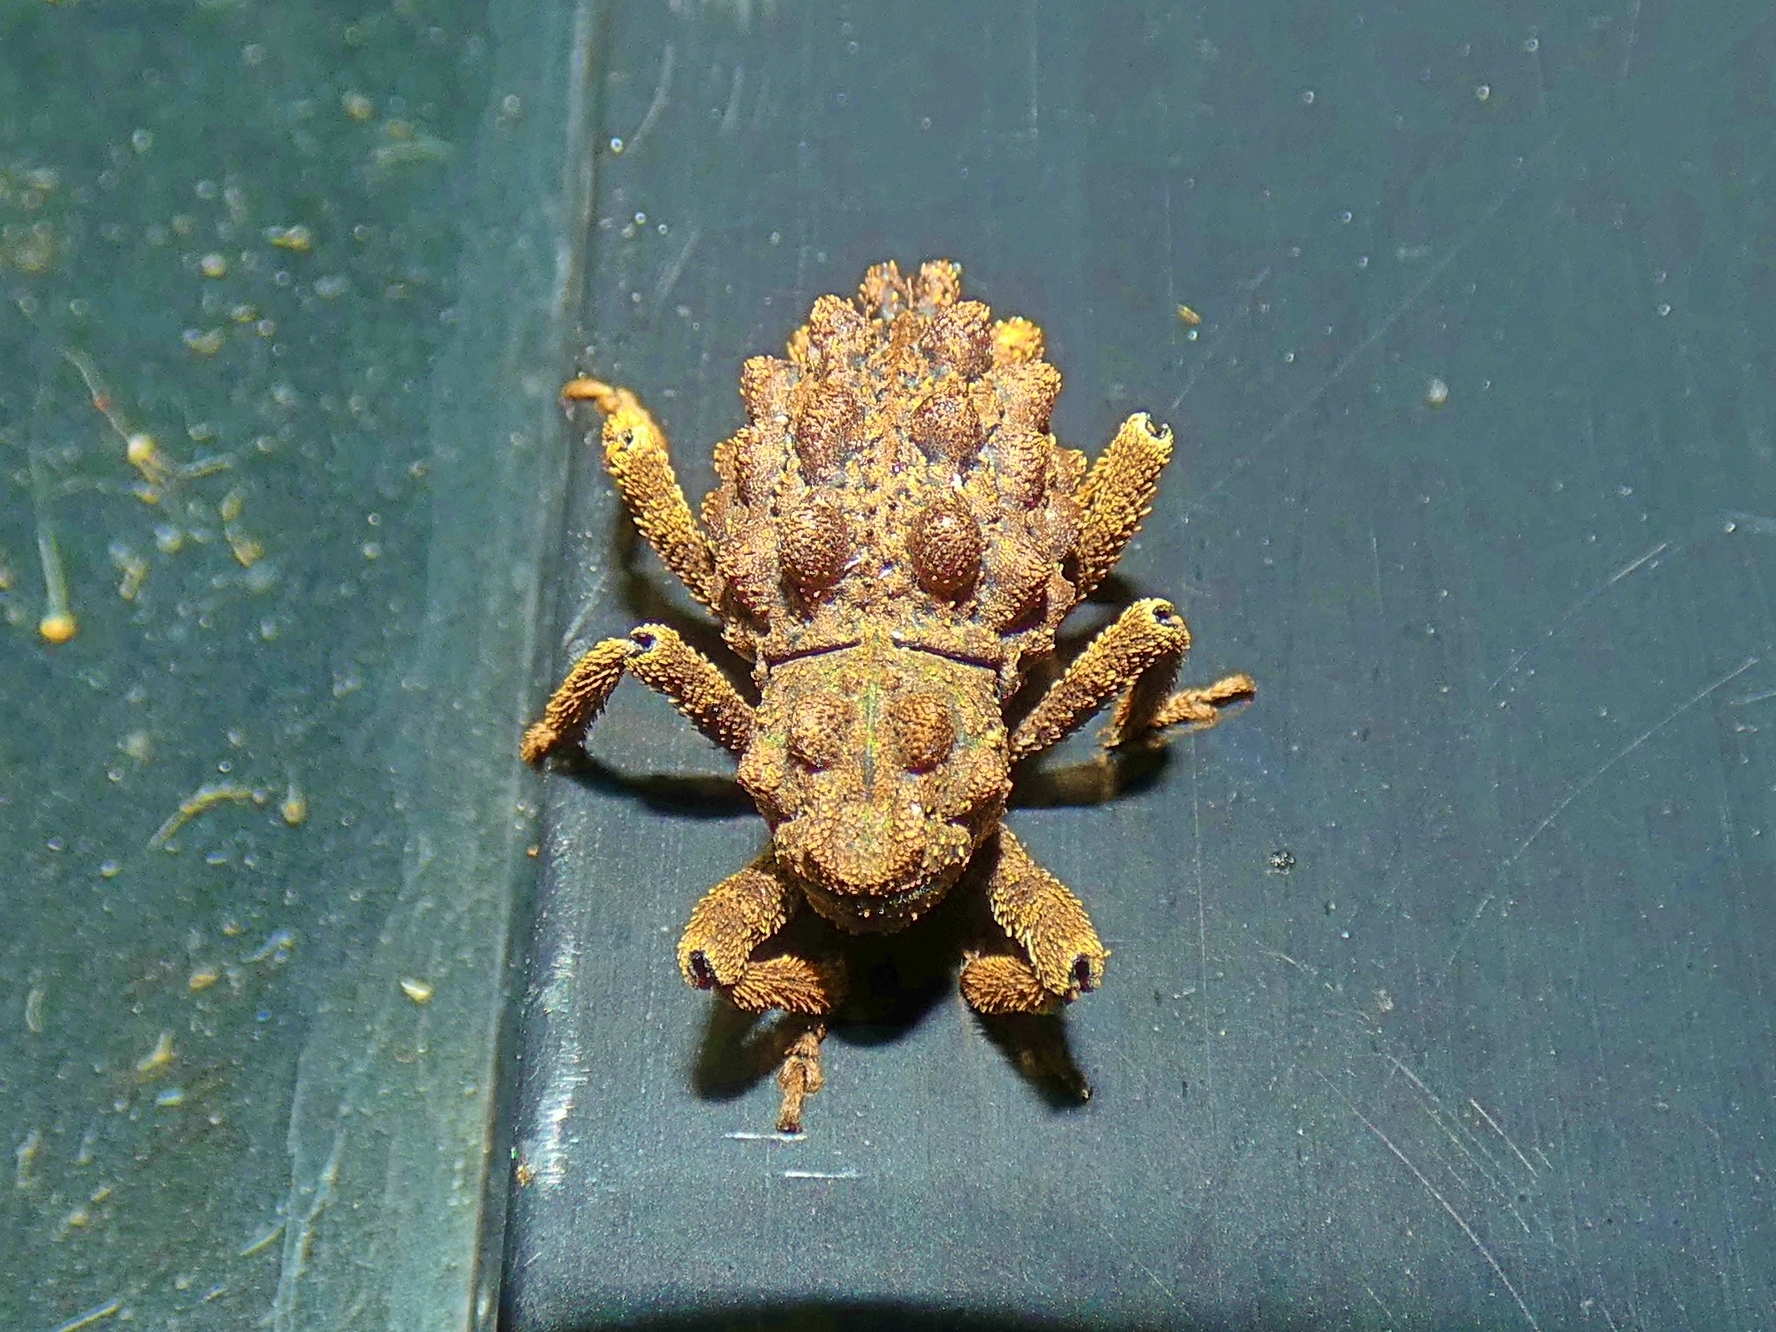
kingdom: Animalia
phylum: Arthropoda
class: Insecta
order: Coleoptera
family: Curculionidae
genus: Poropterus
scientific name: Poropterus intermedius
